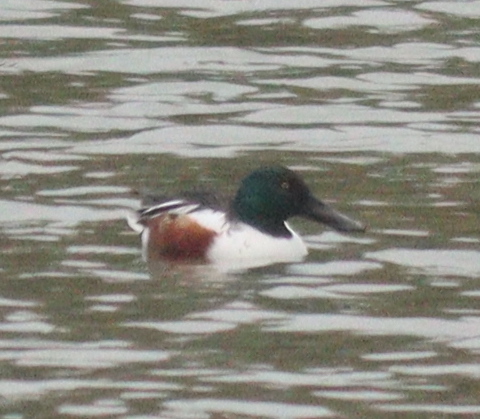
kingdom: Animalia
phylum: Chordata
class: Aves
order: Anseriformes
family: Anatidae
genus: Spatula
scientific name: Spatula clypeata
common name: Northern shoveler
